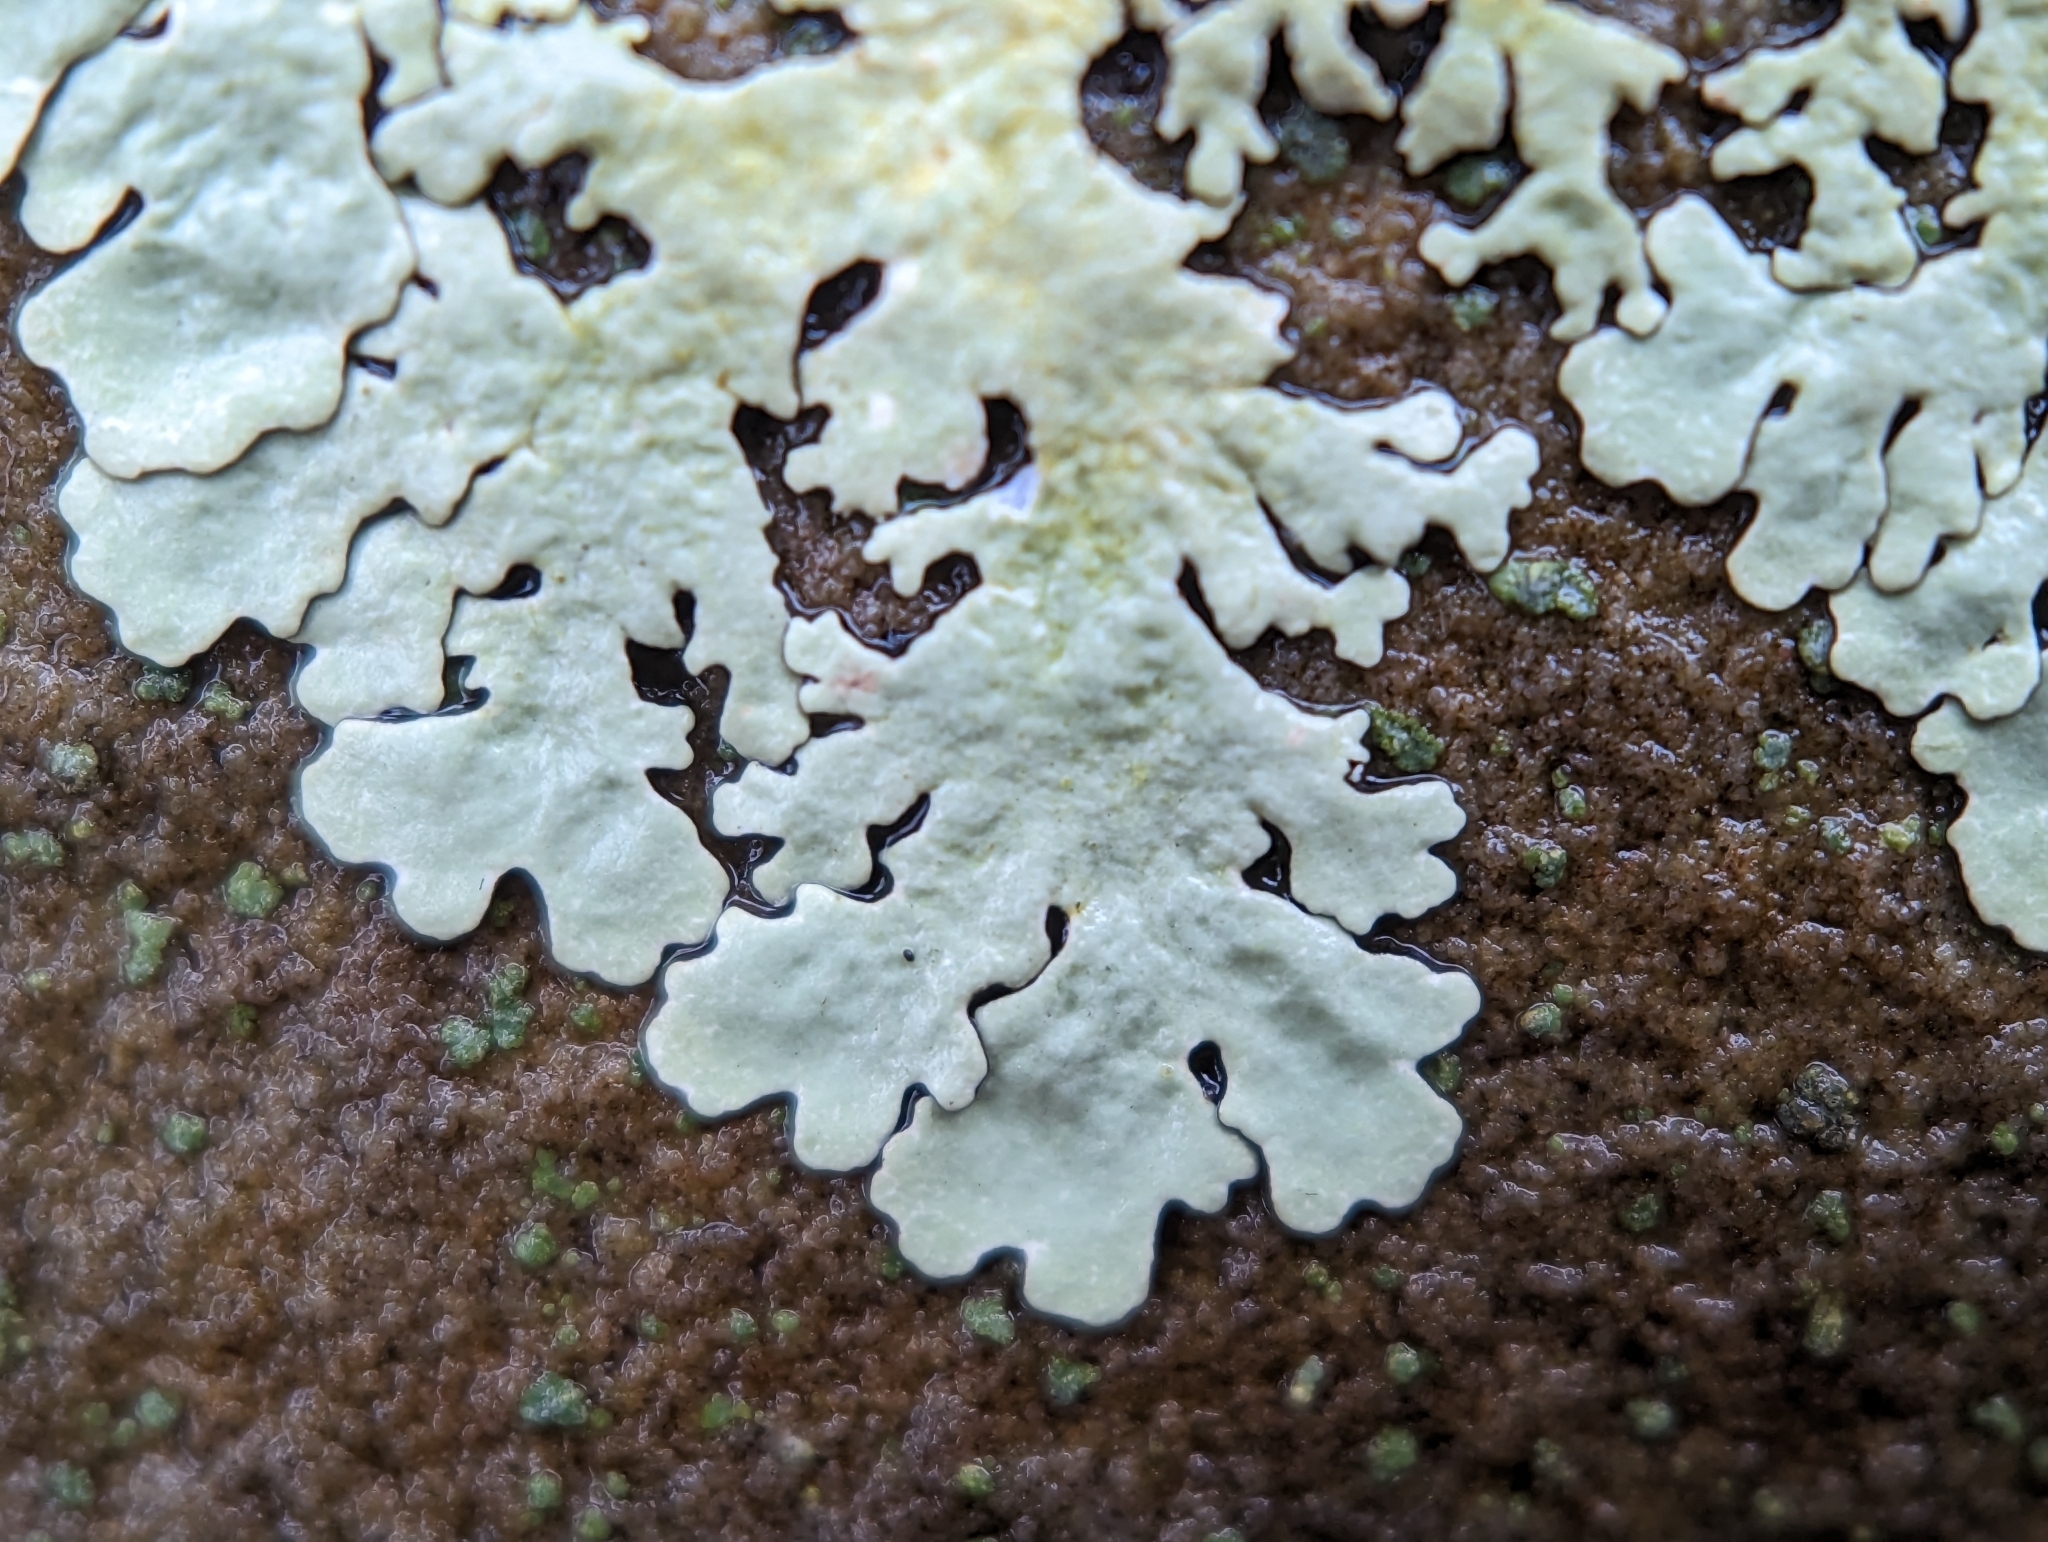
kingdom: Fungi
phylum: Ascomycota
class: Lecanoromycetes
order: Lecanorales
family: Parmeliaceae
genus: Flavoparmelia
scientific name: Flavoparmelia baltimorensis
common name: Rock greenshield
